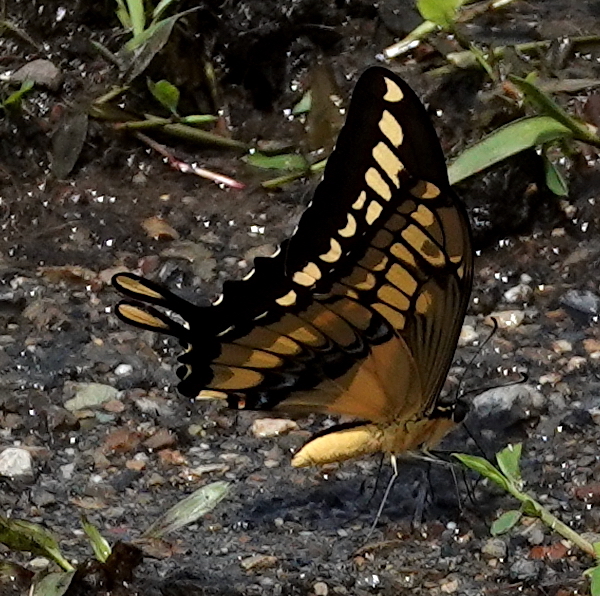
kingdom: Animalia
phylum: Arthropoda
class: Insecta
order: Lepidoptera
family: Papilionidae
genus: Papilio
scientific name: Papilio thoas
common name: King swallowtail
